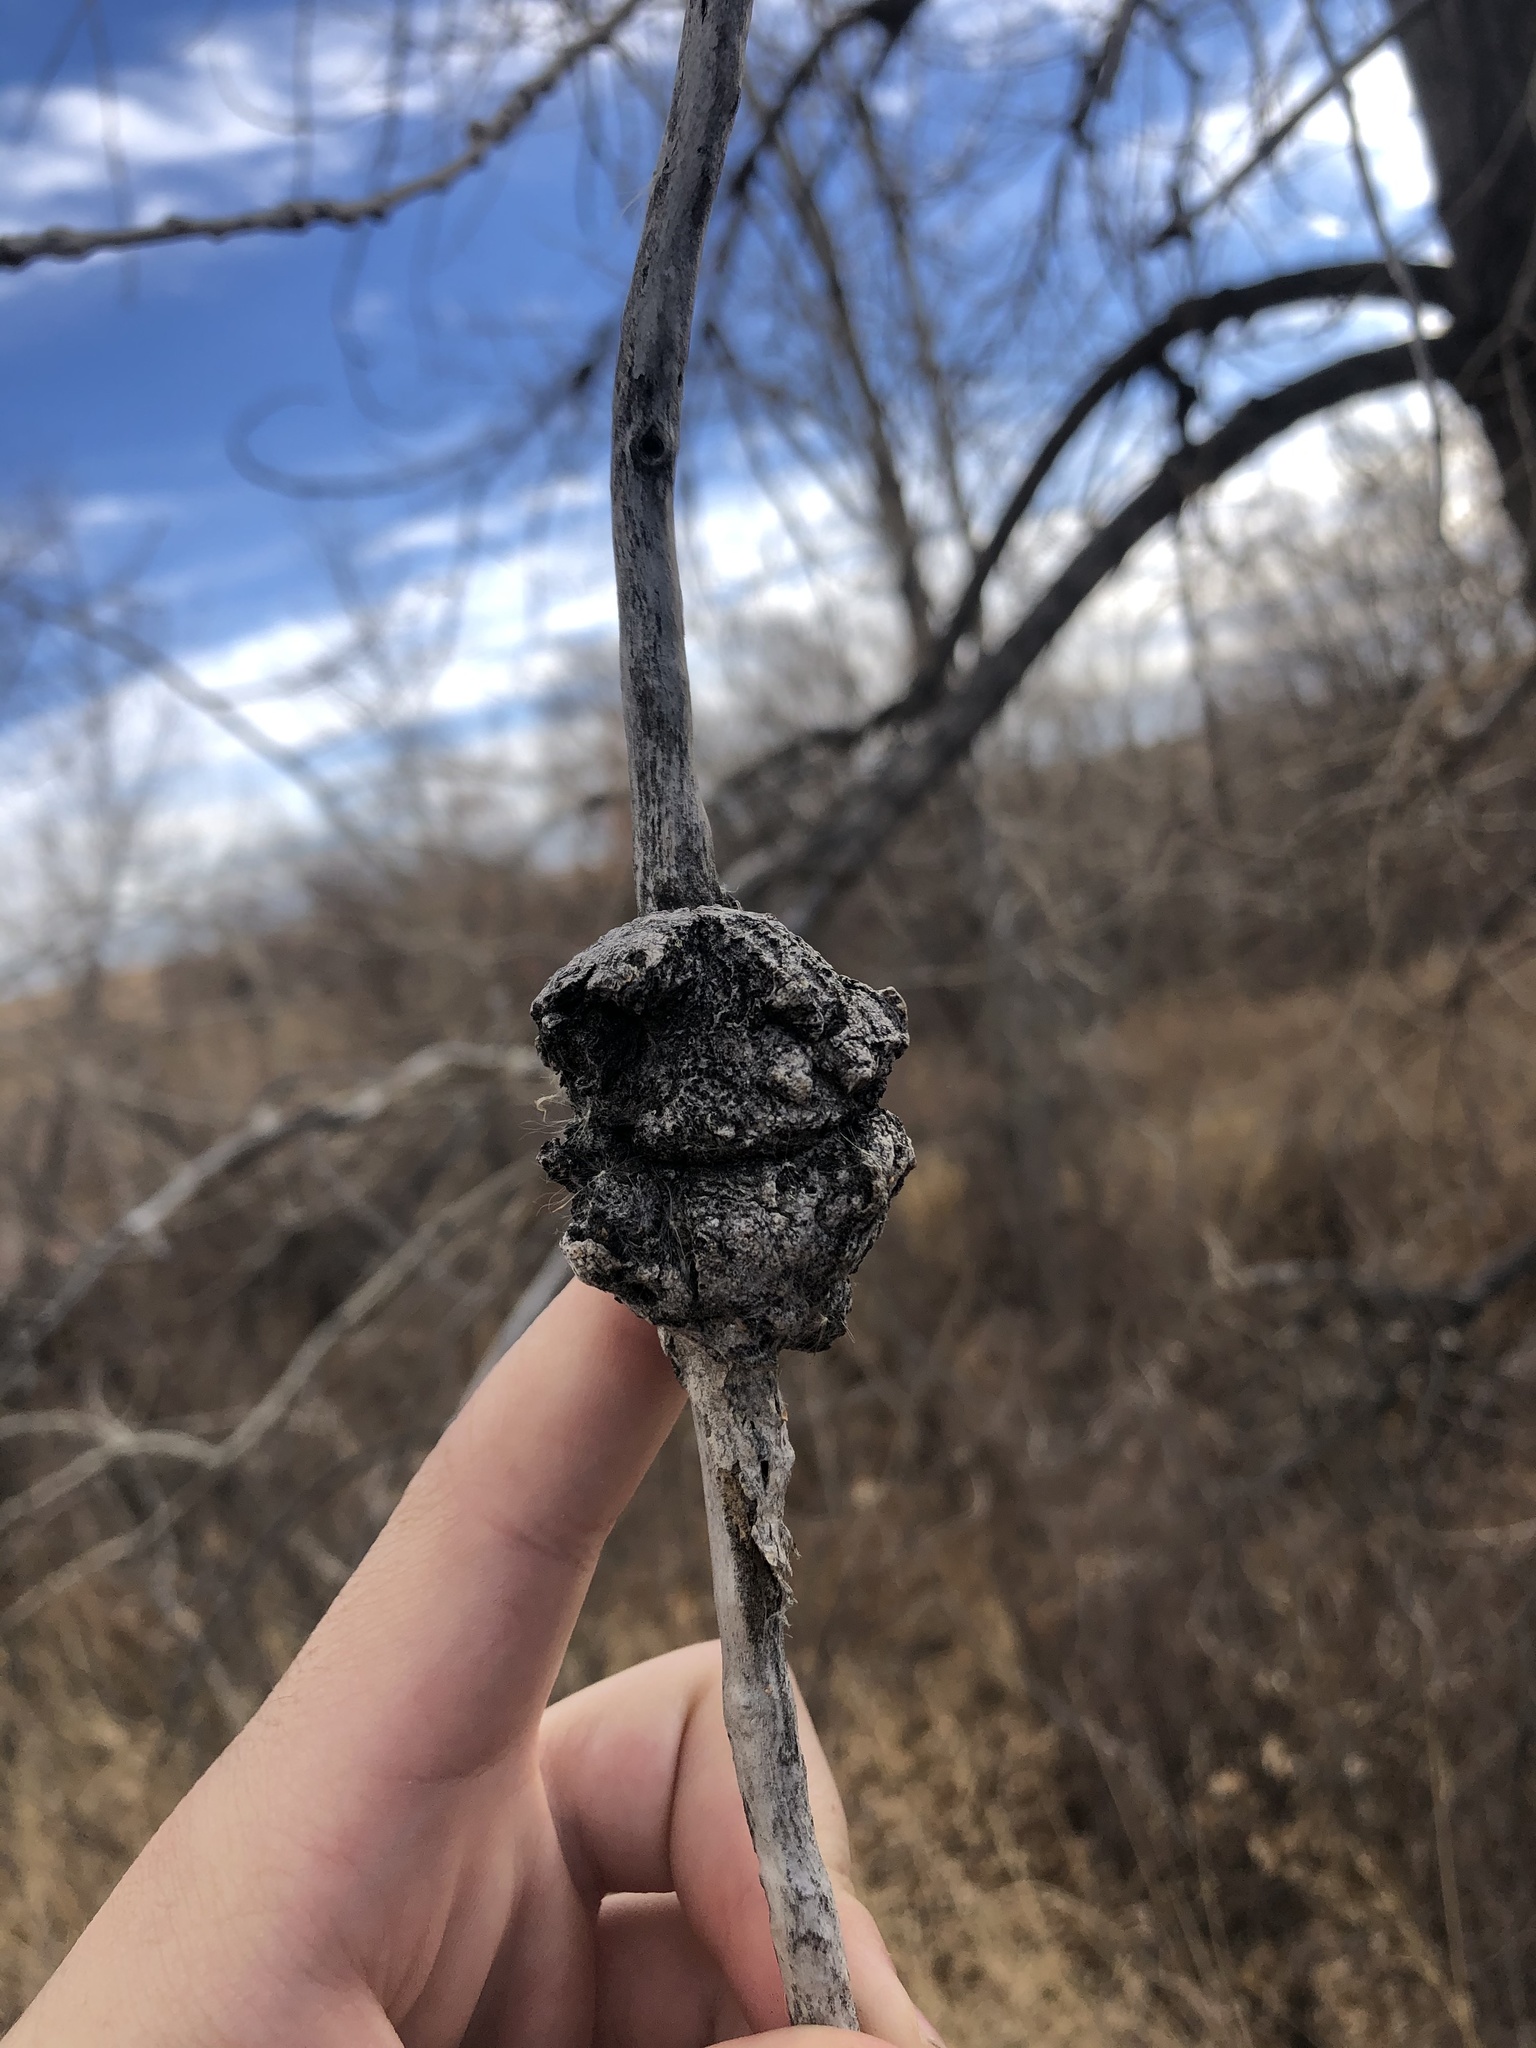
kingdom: Fungi
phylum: Ascomycota
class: Dothideomycetes
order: Botryosphaeriales
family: Botryosphaeriaceae
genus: Diplodia
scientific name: Diplodia tumefaciens
